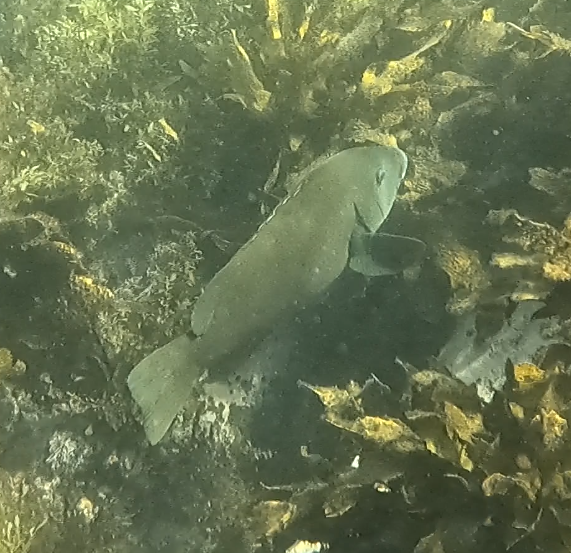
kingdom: Animalia
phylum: Chordata
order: Perciformes
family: Labridae
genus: Achoerodus
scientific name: Achoerodus viridis
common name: Brown groper
